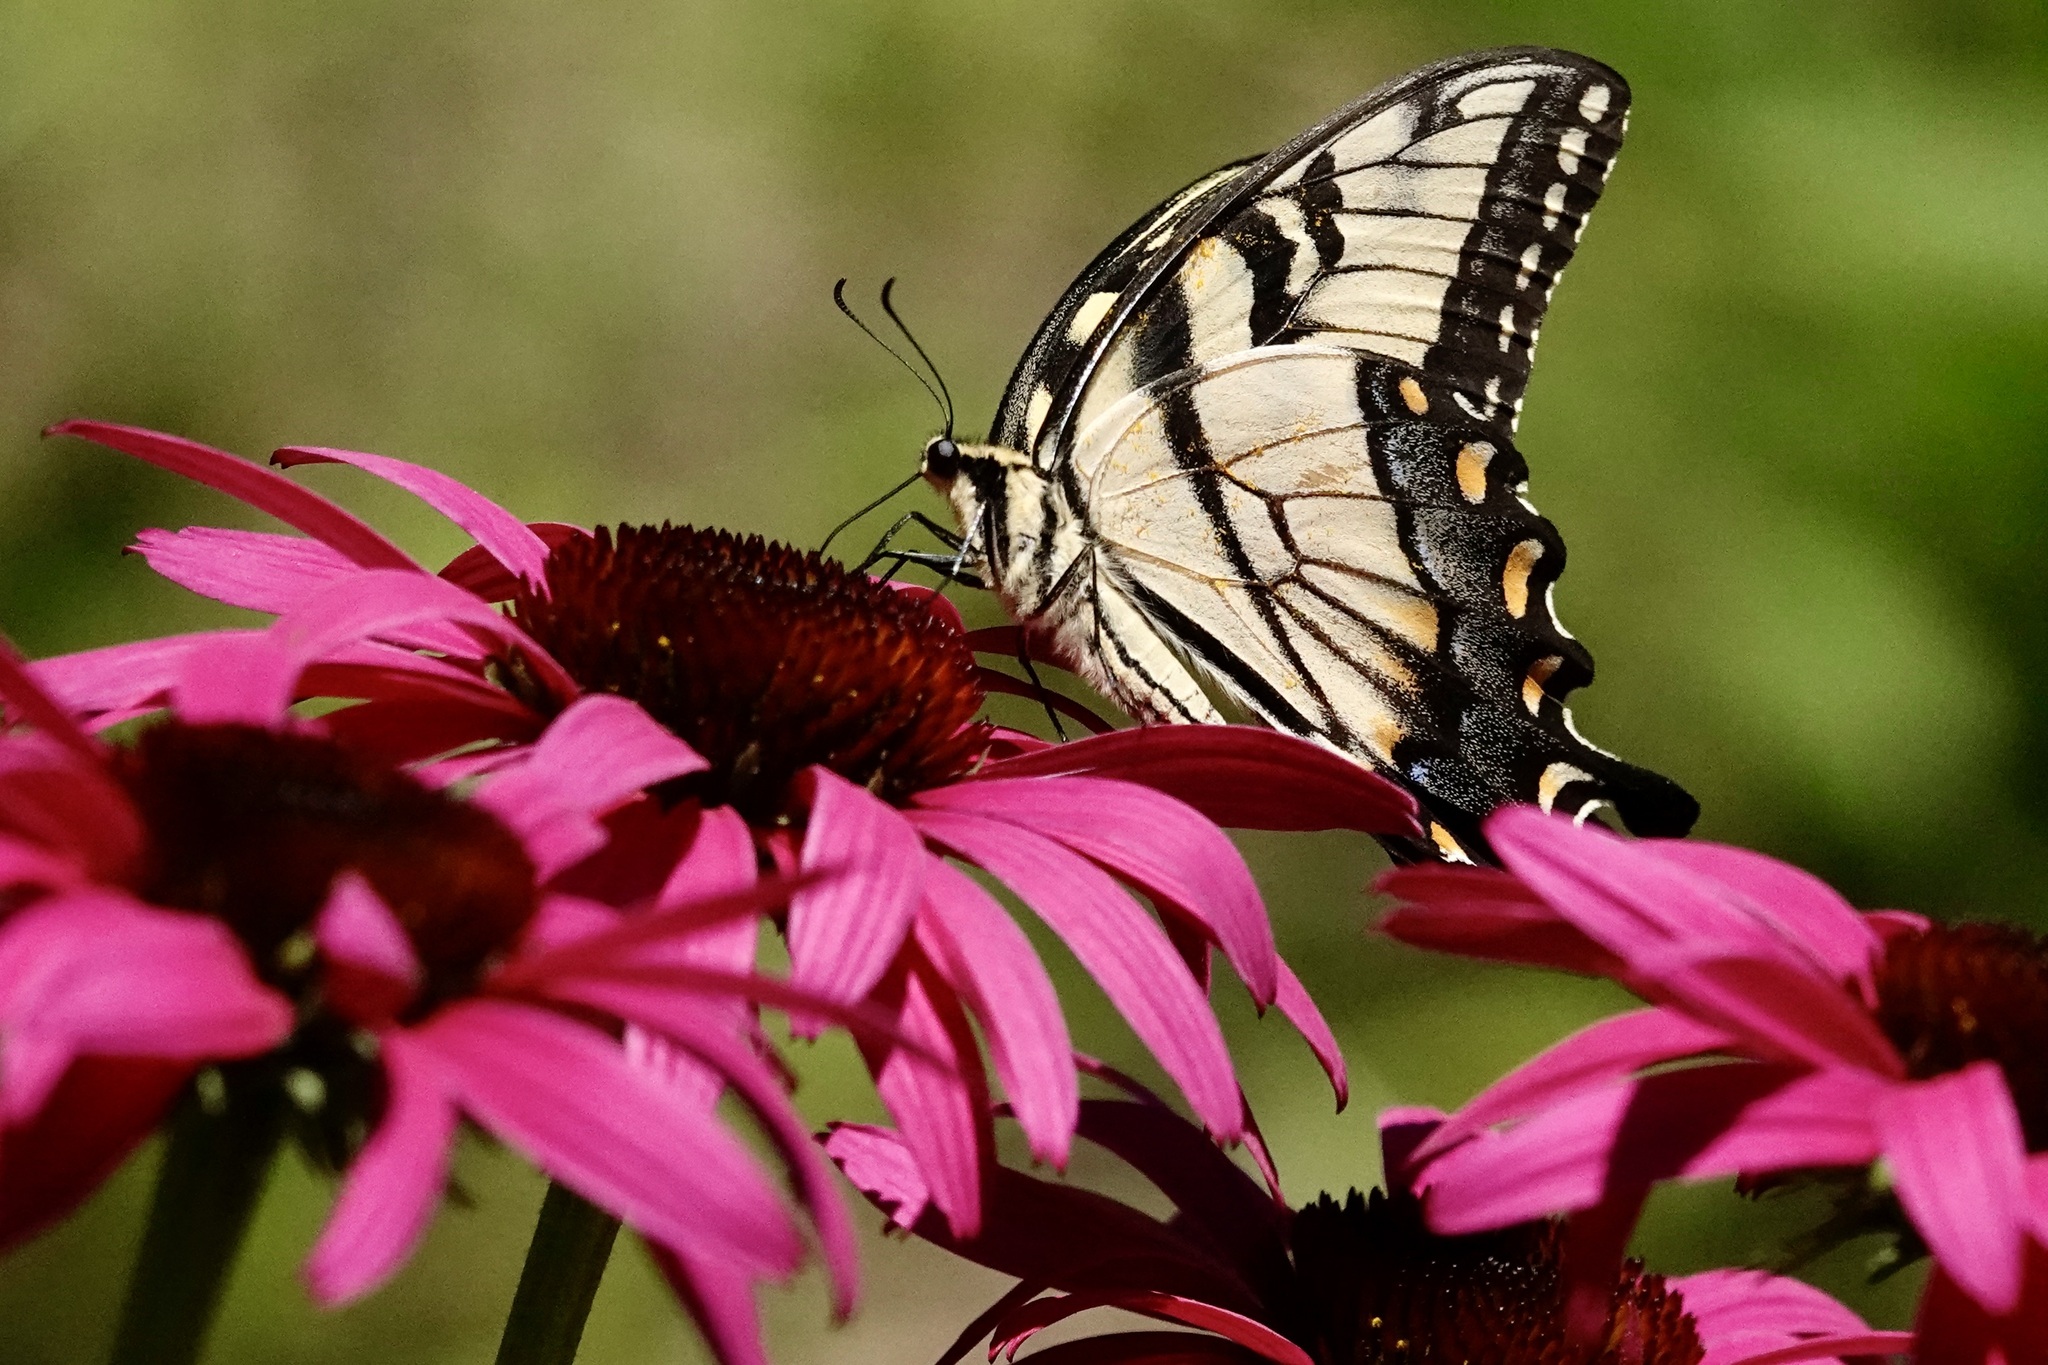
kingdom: Animalia
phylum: Arthropoda
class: Insecta
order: Lepidoptera
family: Papilionidae
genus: Papilio
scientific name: Papilio glaucus
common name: Tiger swallowtail
